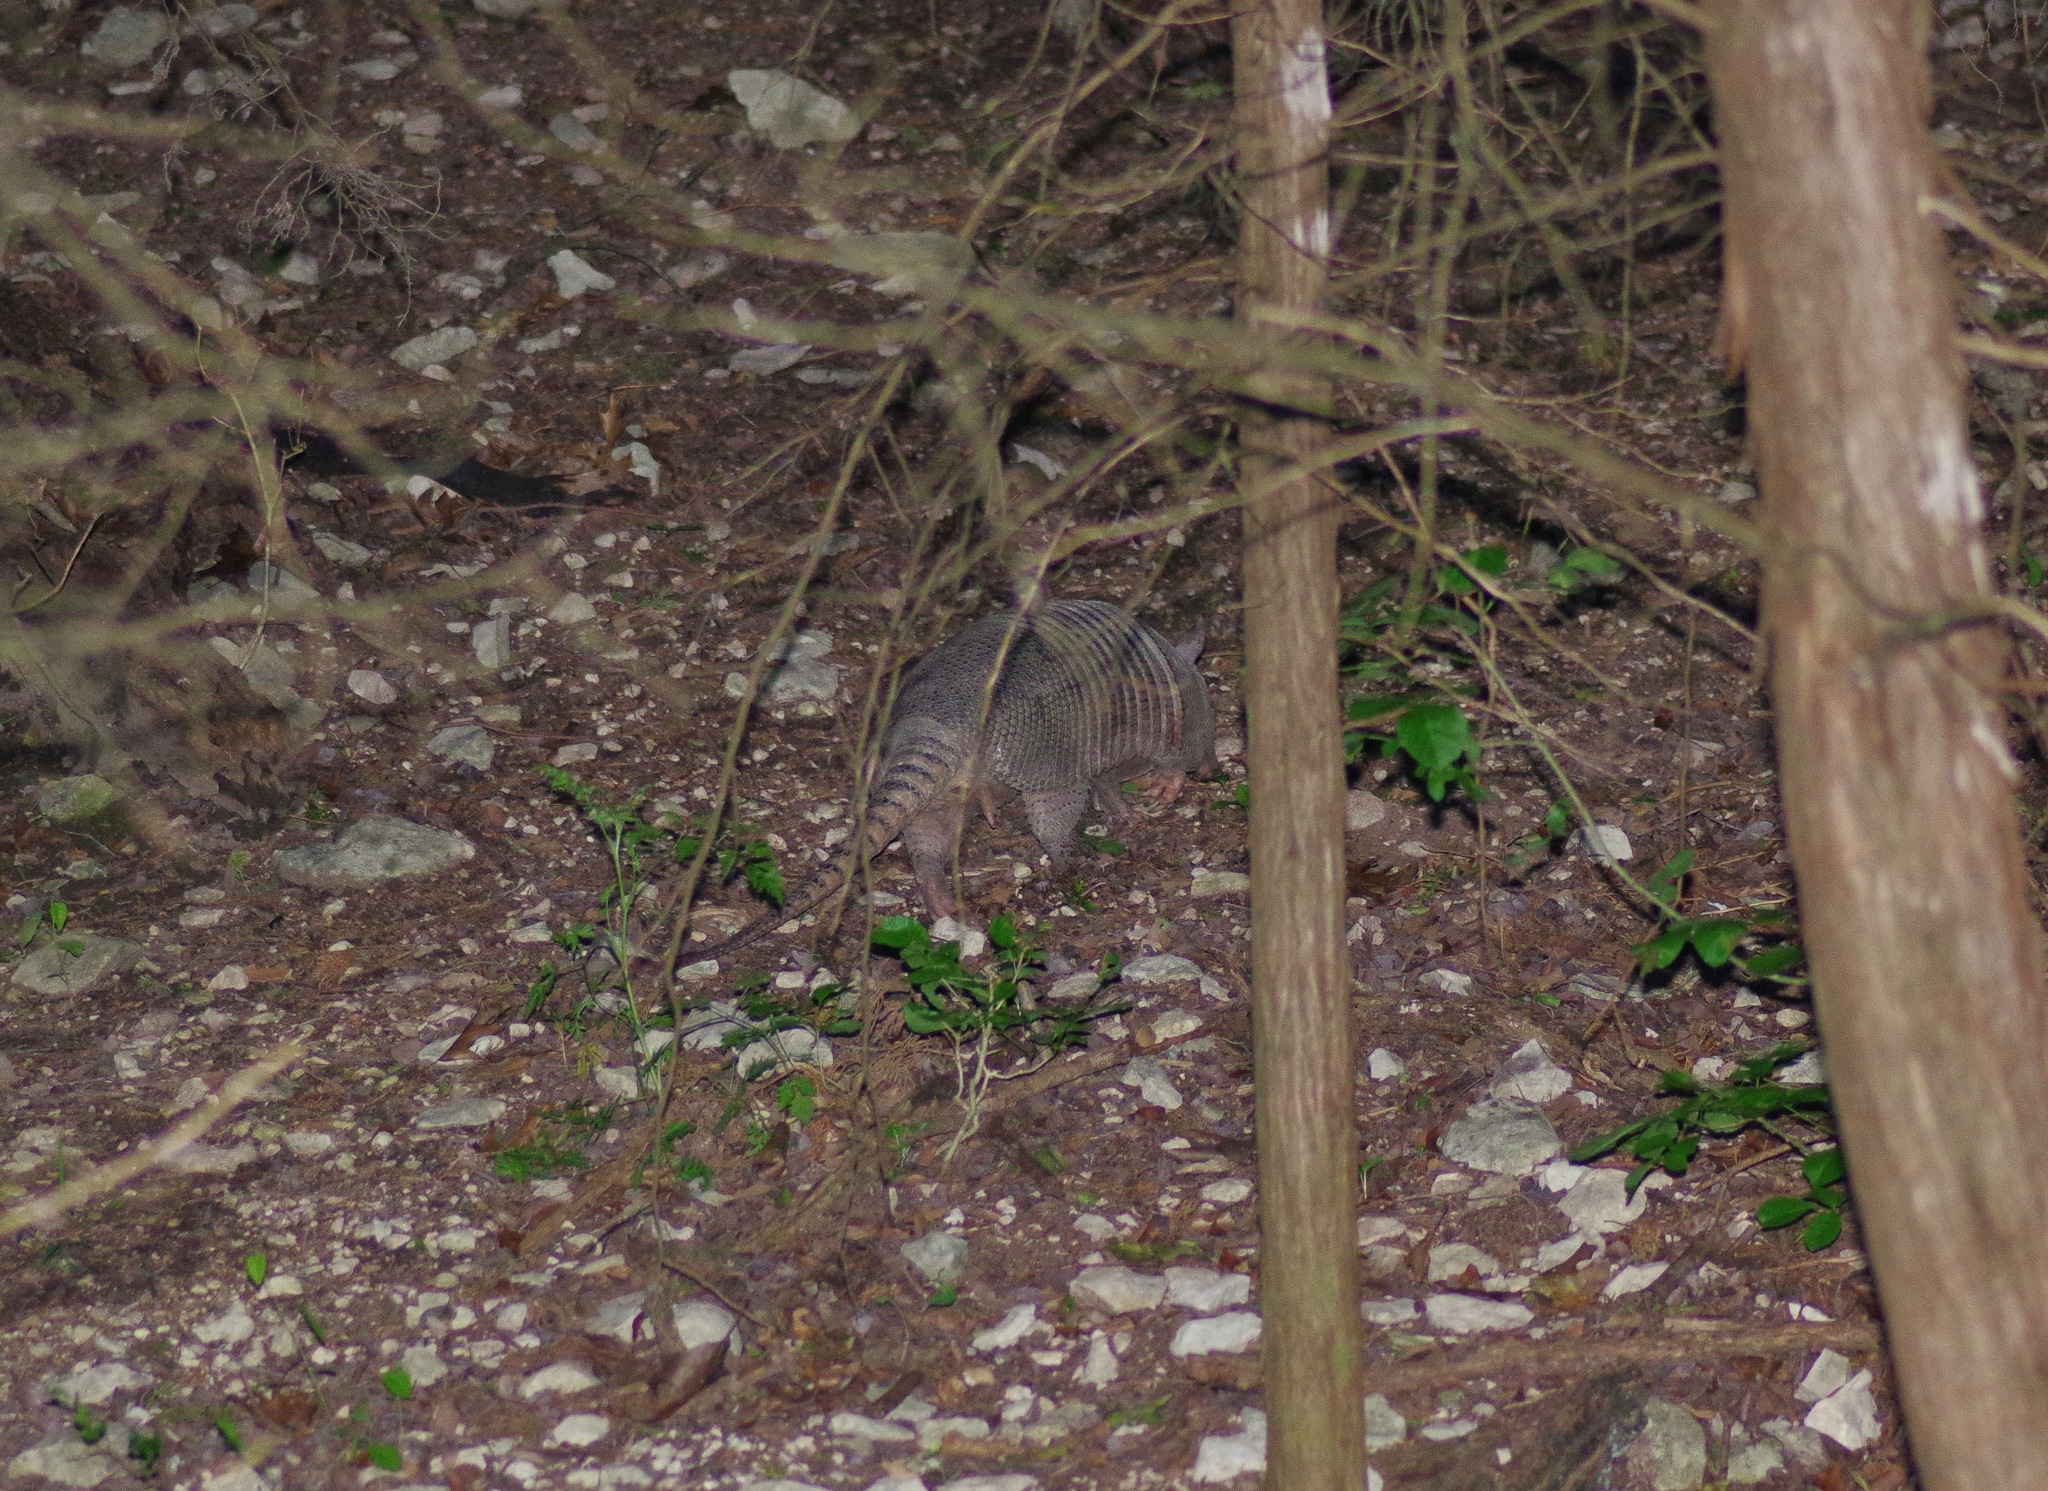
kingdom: Animalia
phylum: Chordata
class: Mammalia
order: Cingulata
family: Dasypodidae
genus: Dasypus
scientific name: Dasypus novemcinctus
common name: Nine-banded armadillo
